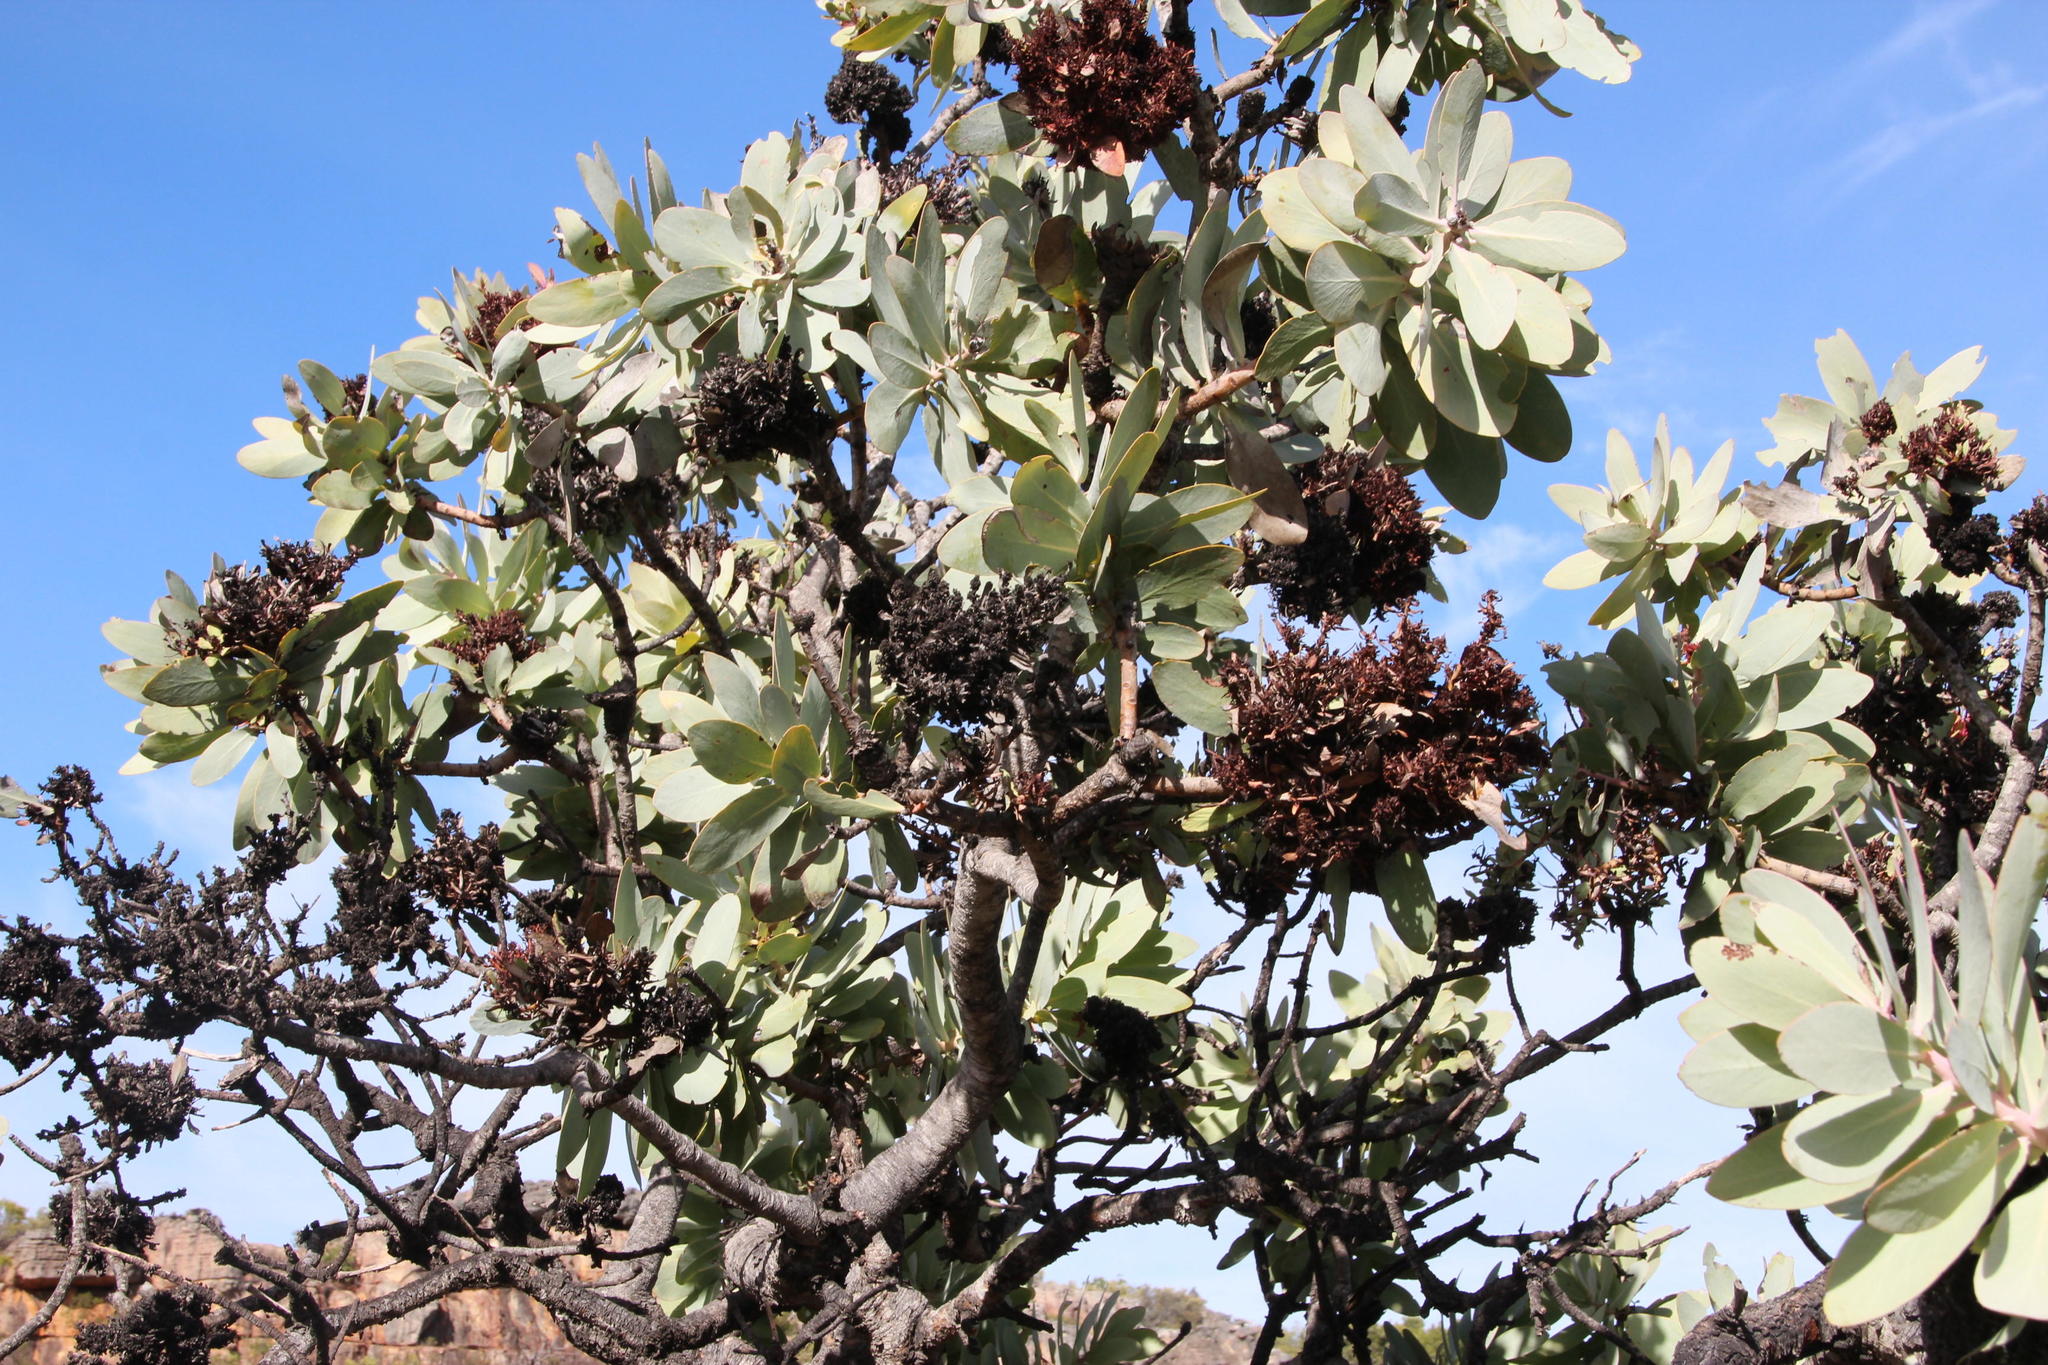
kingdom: Plantae
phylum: Tracheophyta
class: Magnoliopsida
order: Proteales
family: Proteaceae
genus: Protea
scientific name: Protea nitida
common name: Tree protea
